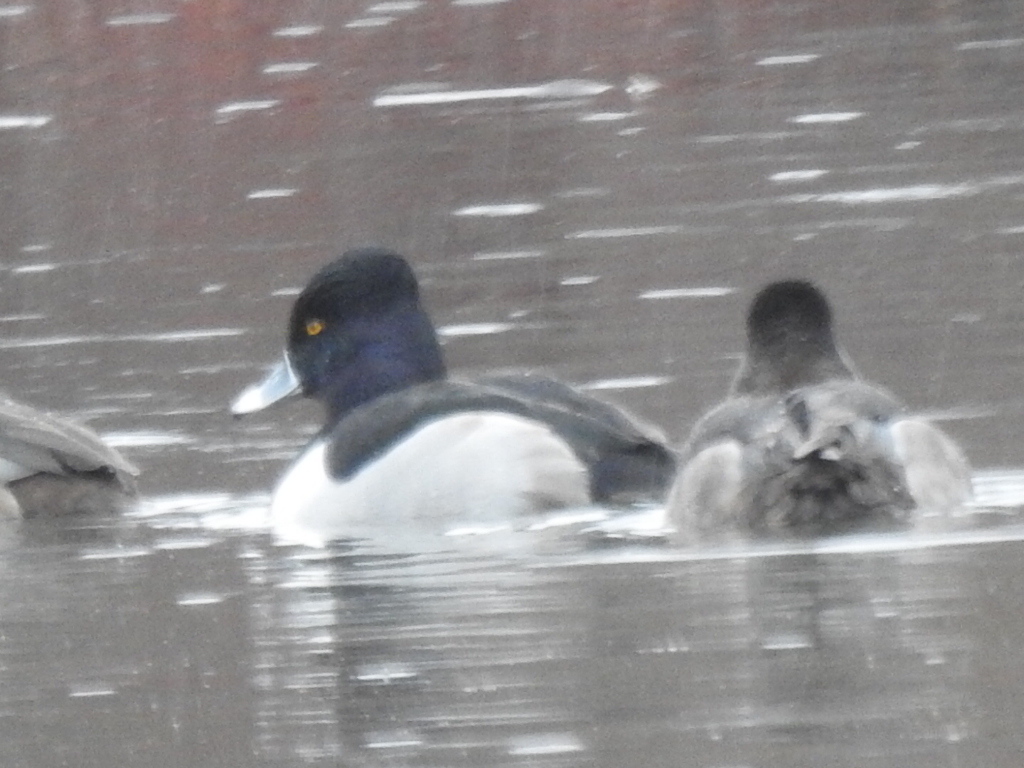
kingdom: Animalia
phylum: Chordata
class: Aves
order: Anseriformes
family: Anatidae
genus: Aythya
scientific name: Aythya collaris
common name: Ring-necked duck
